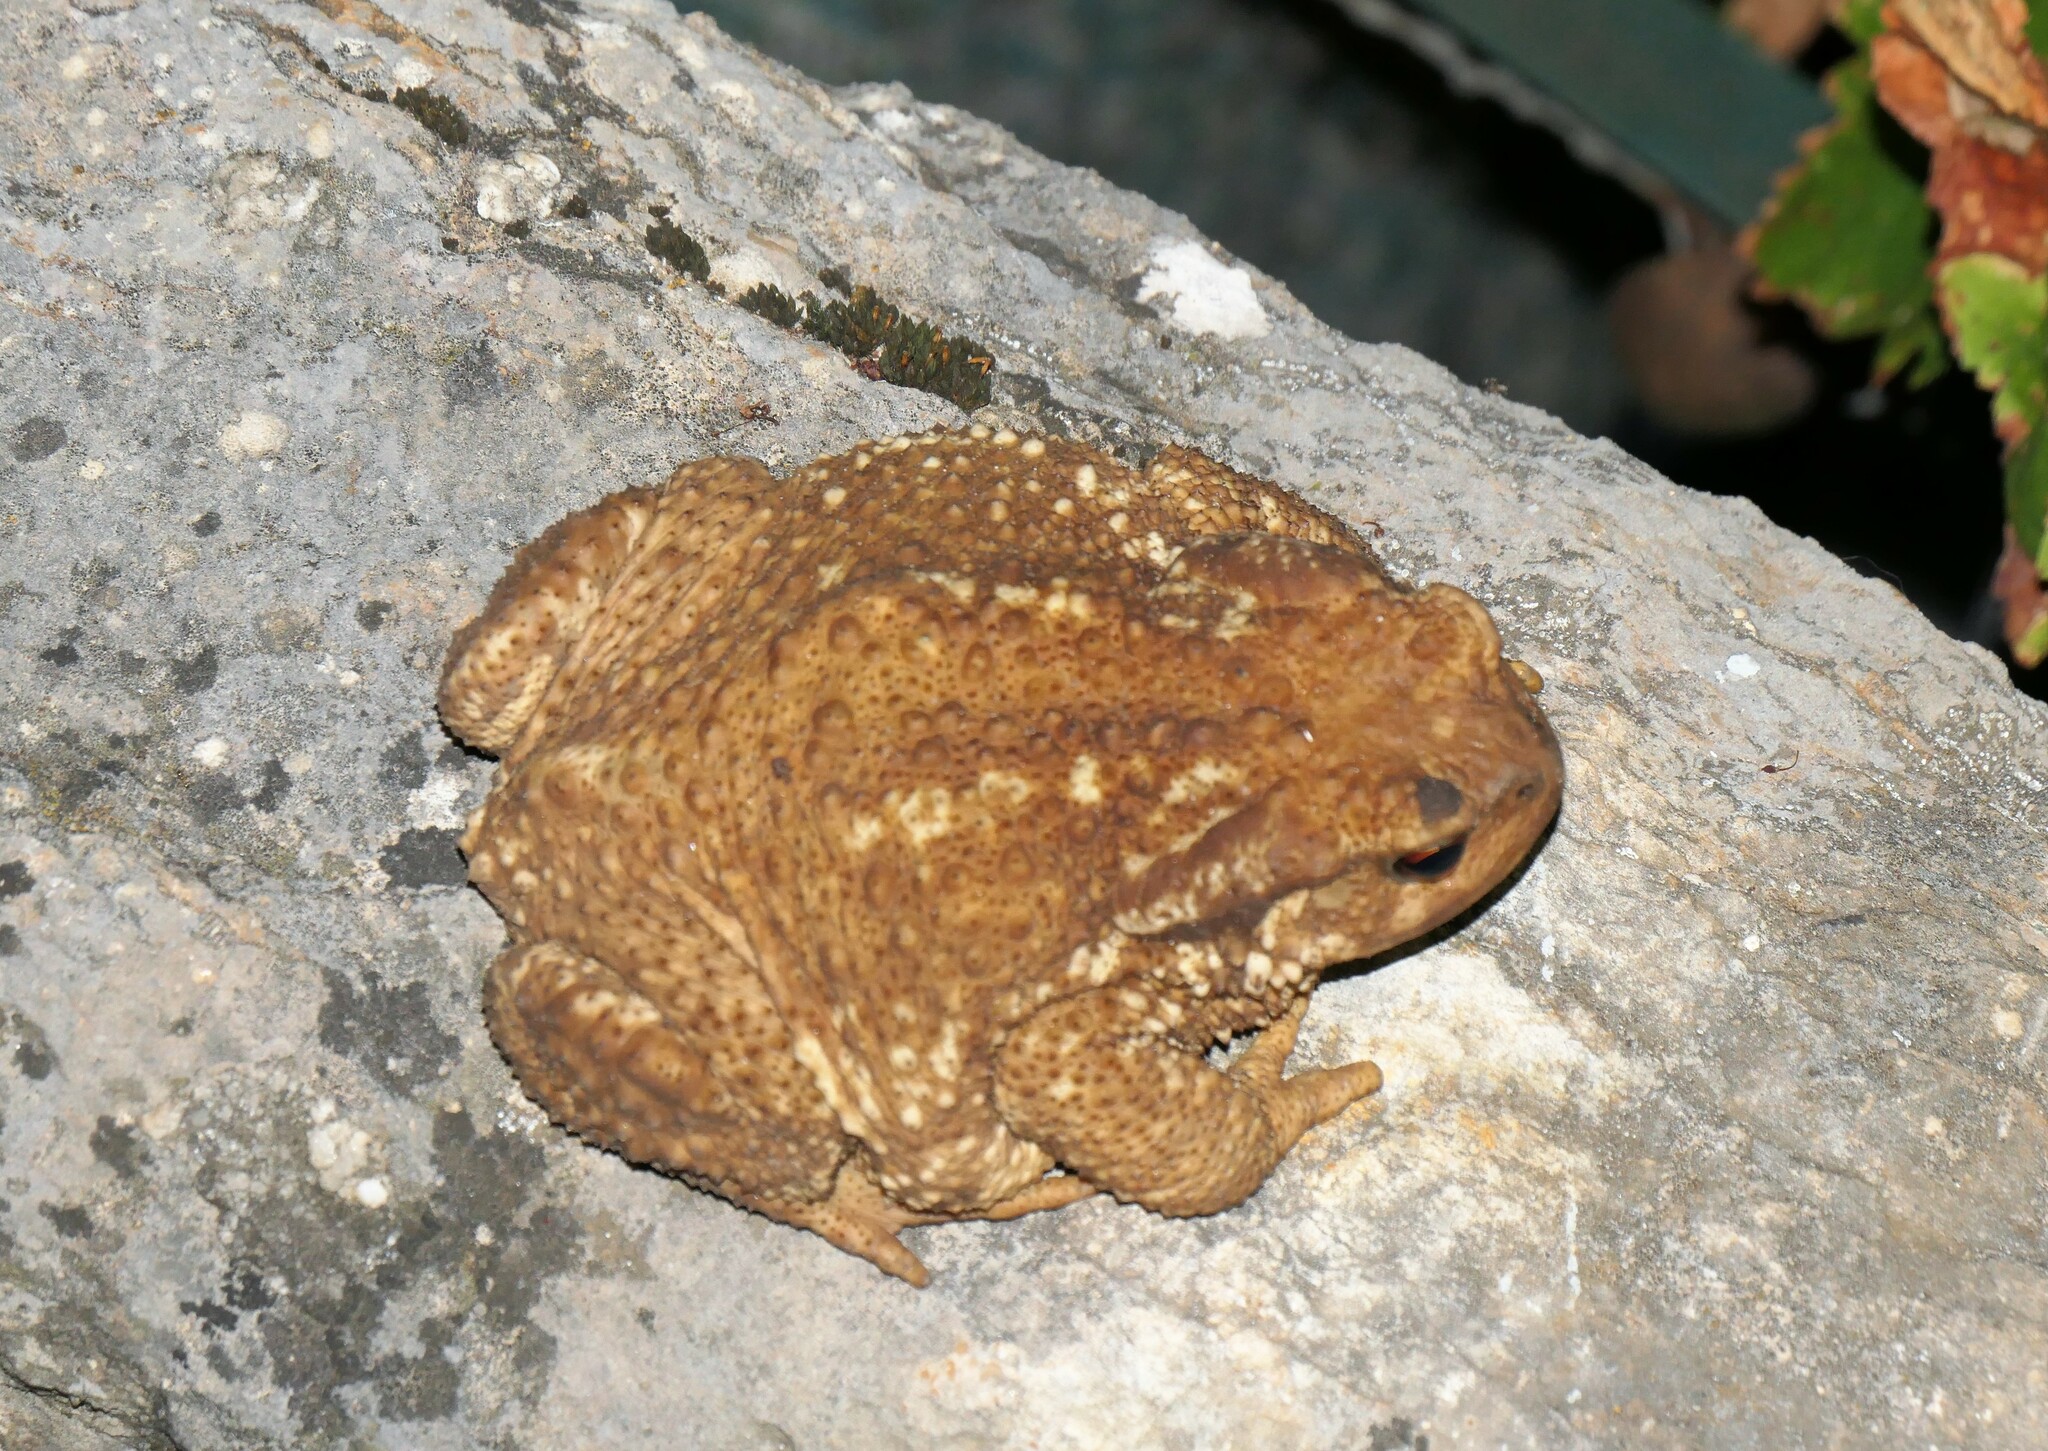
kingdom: Animalia
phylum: Chordata
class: Amphibia
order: Anura
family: Bufonidae
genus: Bufo
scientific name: Bufo spinosus
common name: Western common toad
